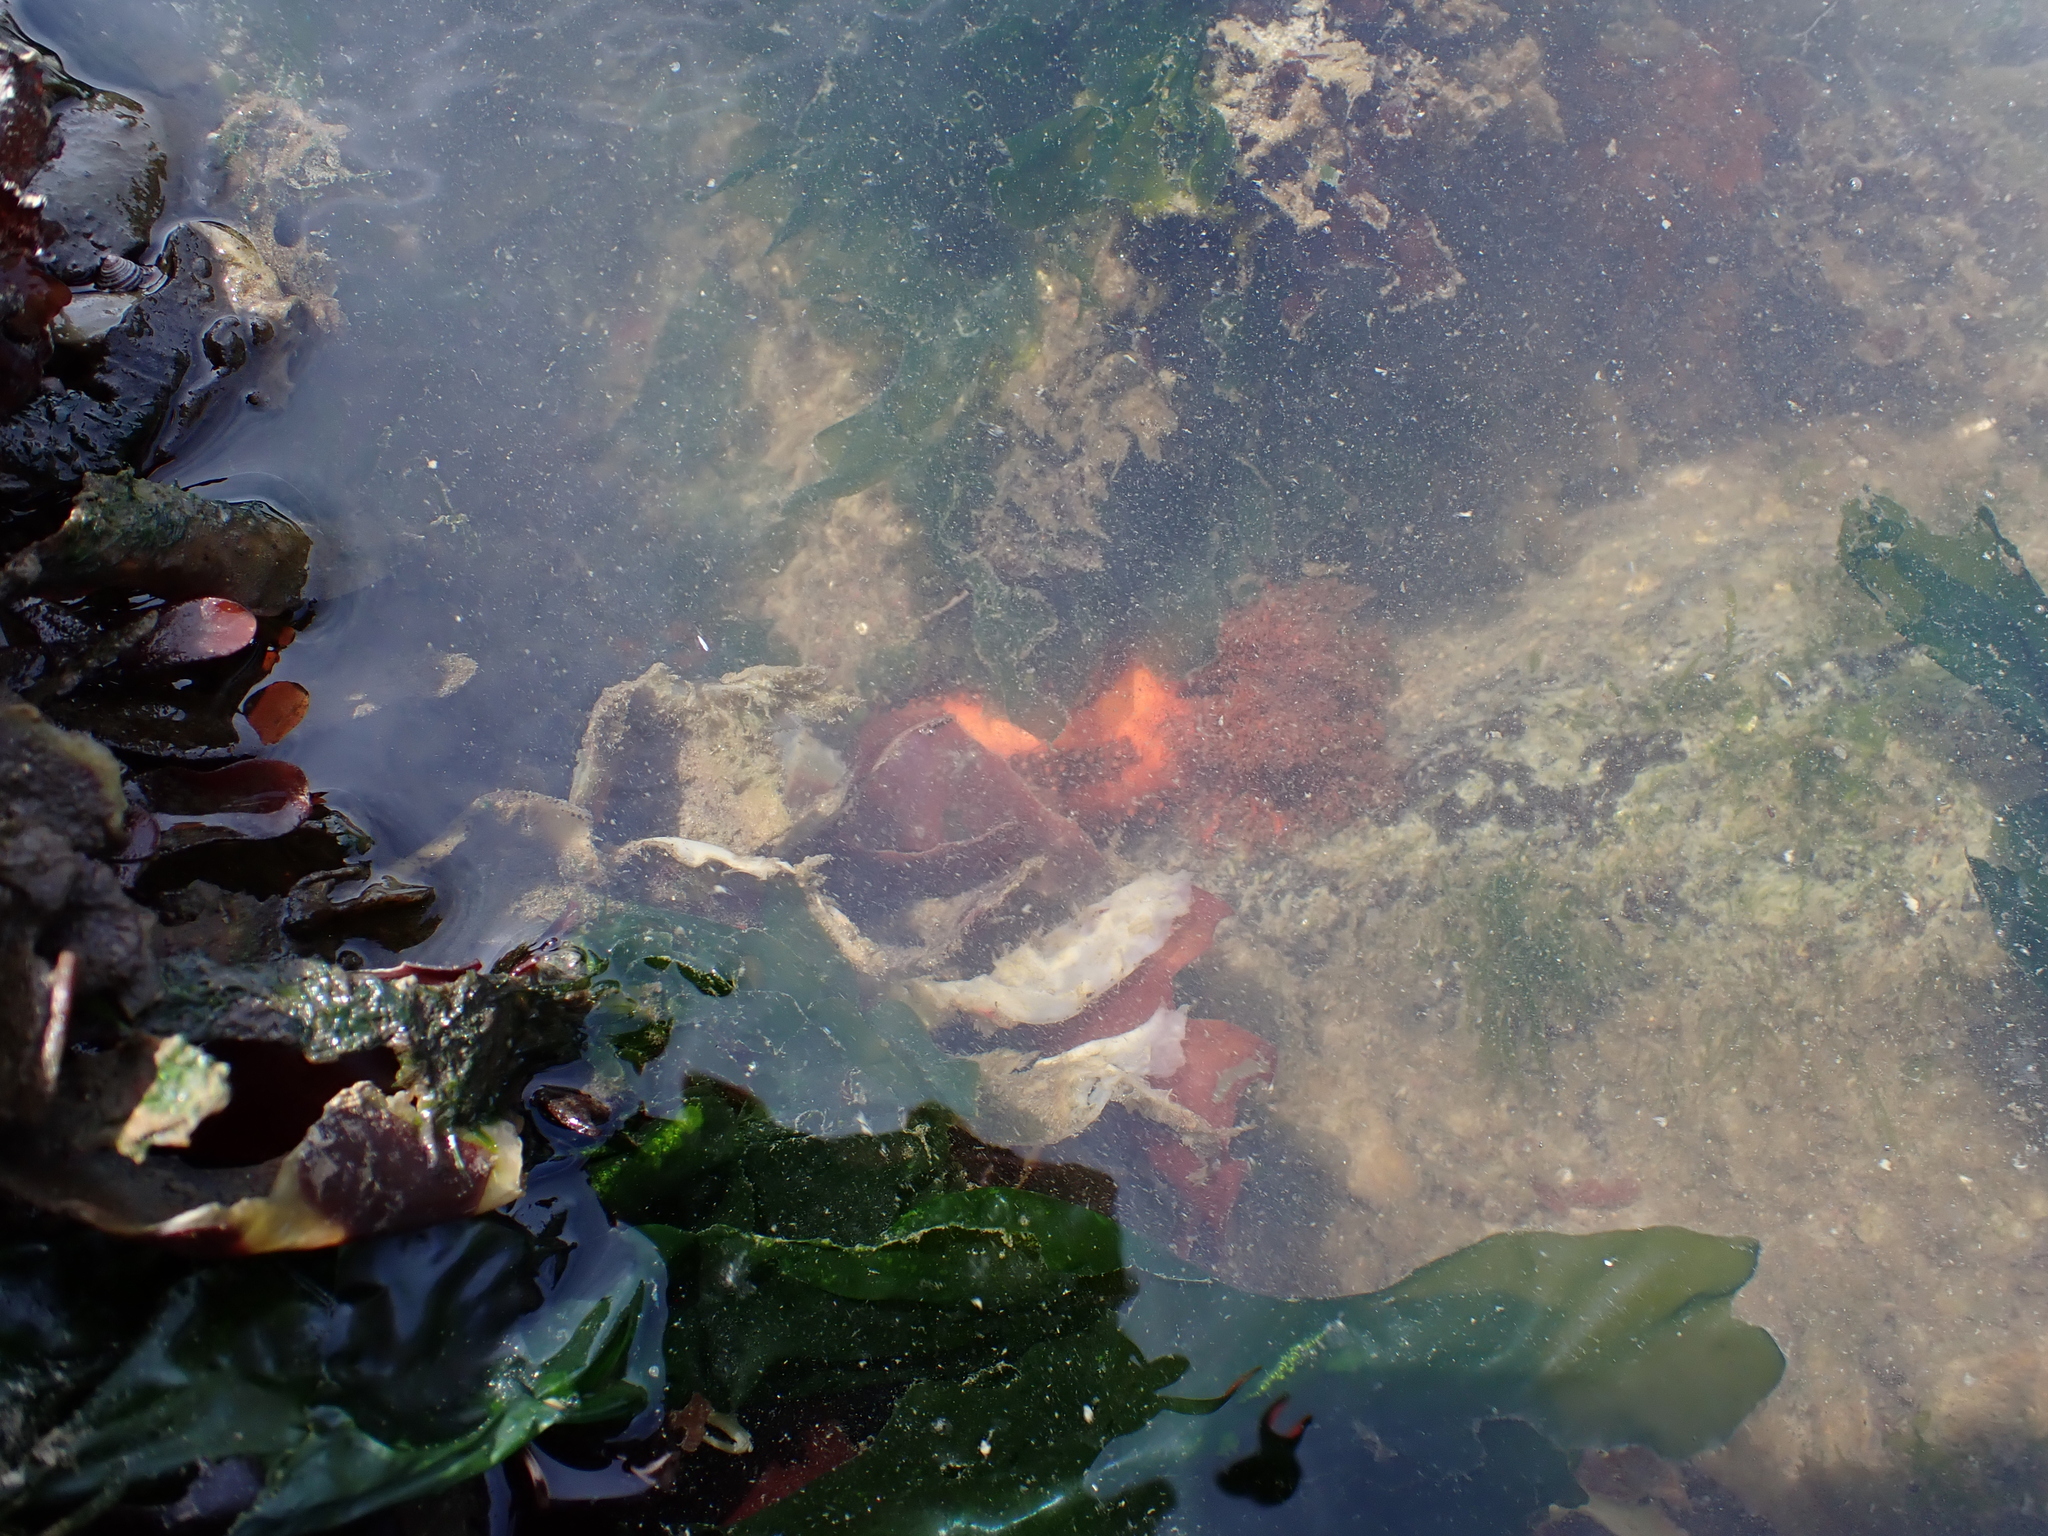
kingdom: Animalia
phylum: Echinodermata
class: Holothuroidea
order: Dendrochirotida
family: Cucumariidae
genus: Cucumaria
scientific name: Cucumaria miniata
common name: Orange sea cucumber
